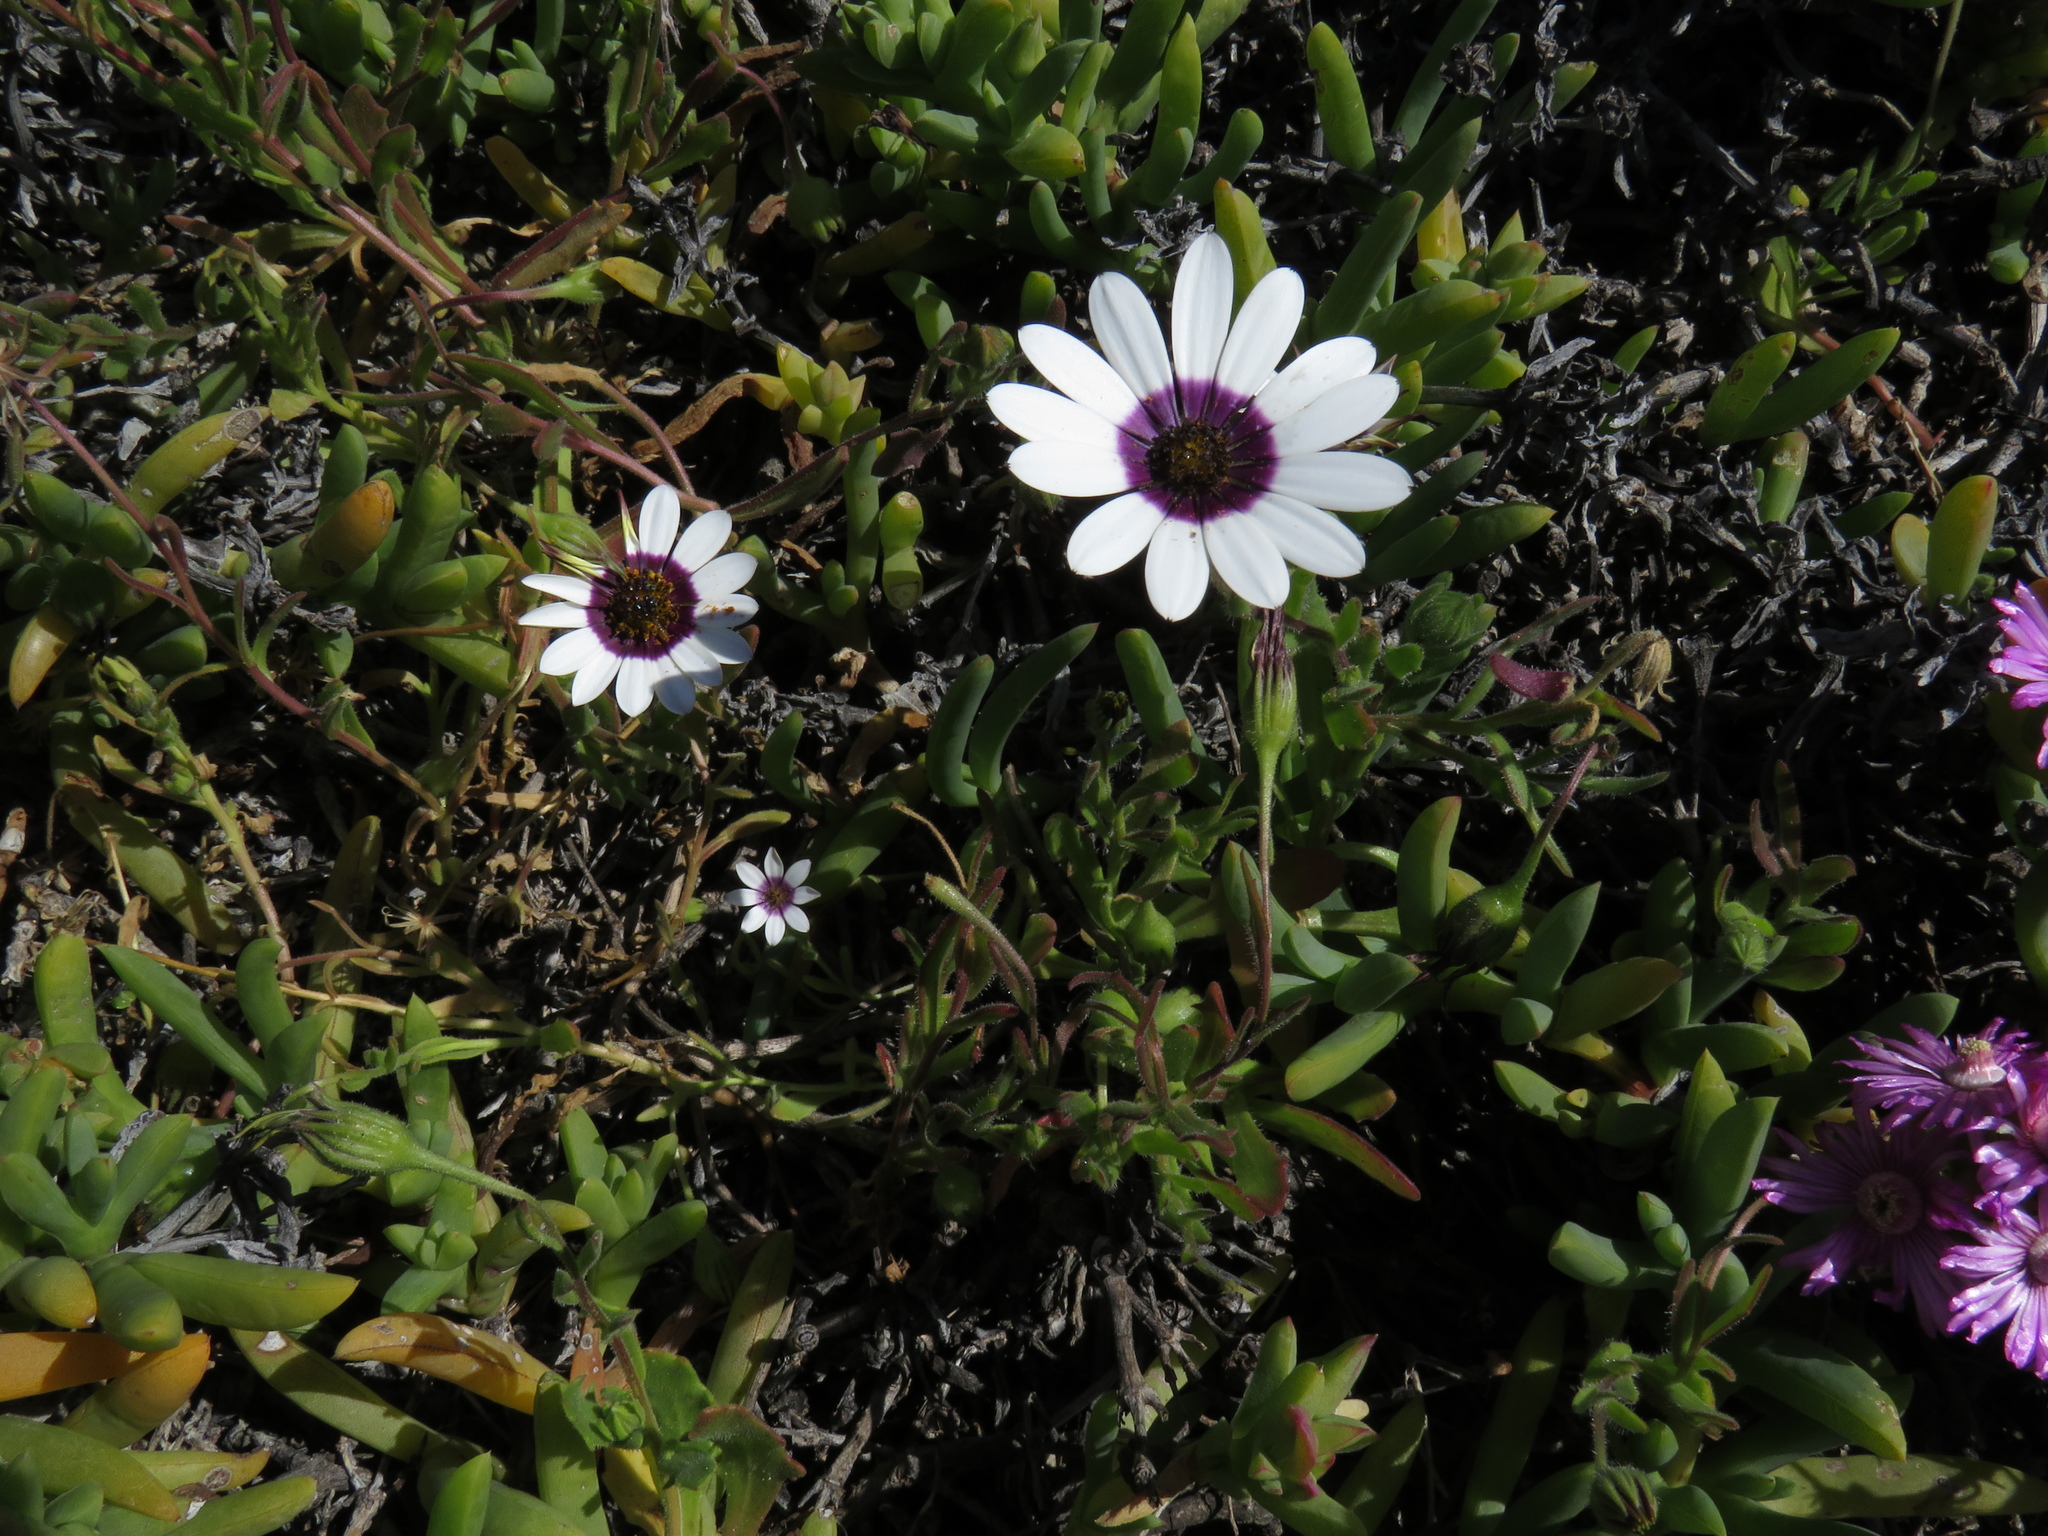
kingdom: Plantae
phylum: Tracheophyta
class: Magnoliopsida
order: Asterales
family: Asteraceae
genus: Dimorphotheca
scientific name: Dimorphotheca pluvialis
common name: Weather prophet
